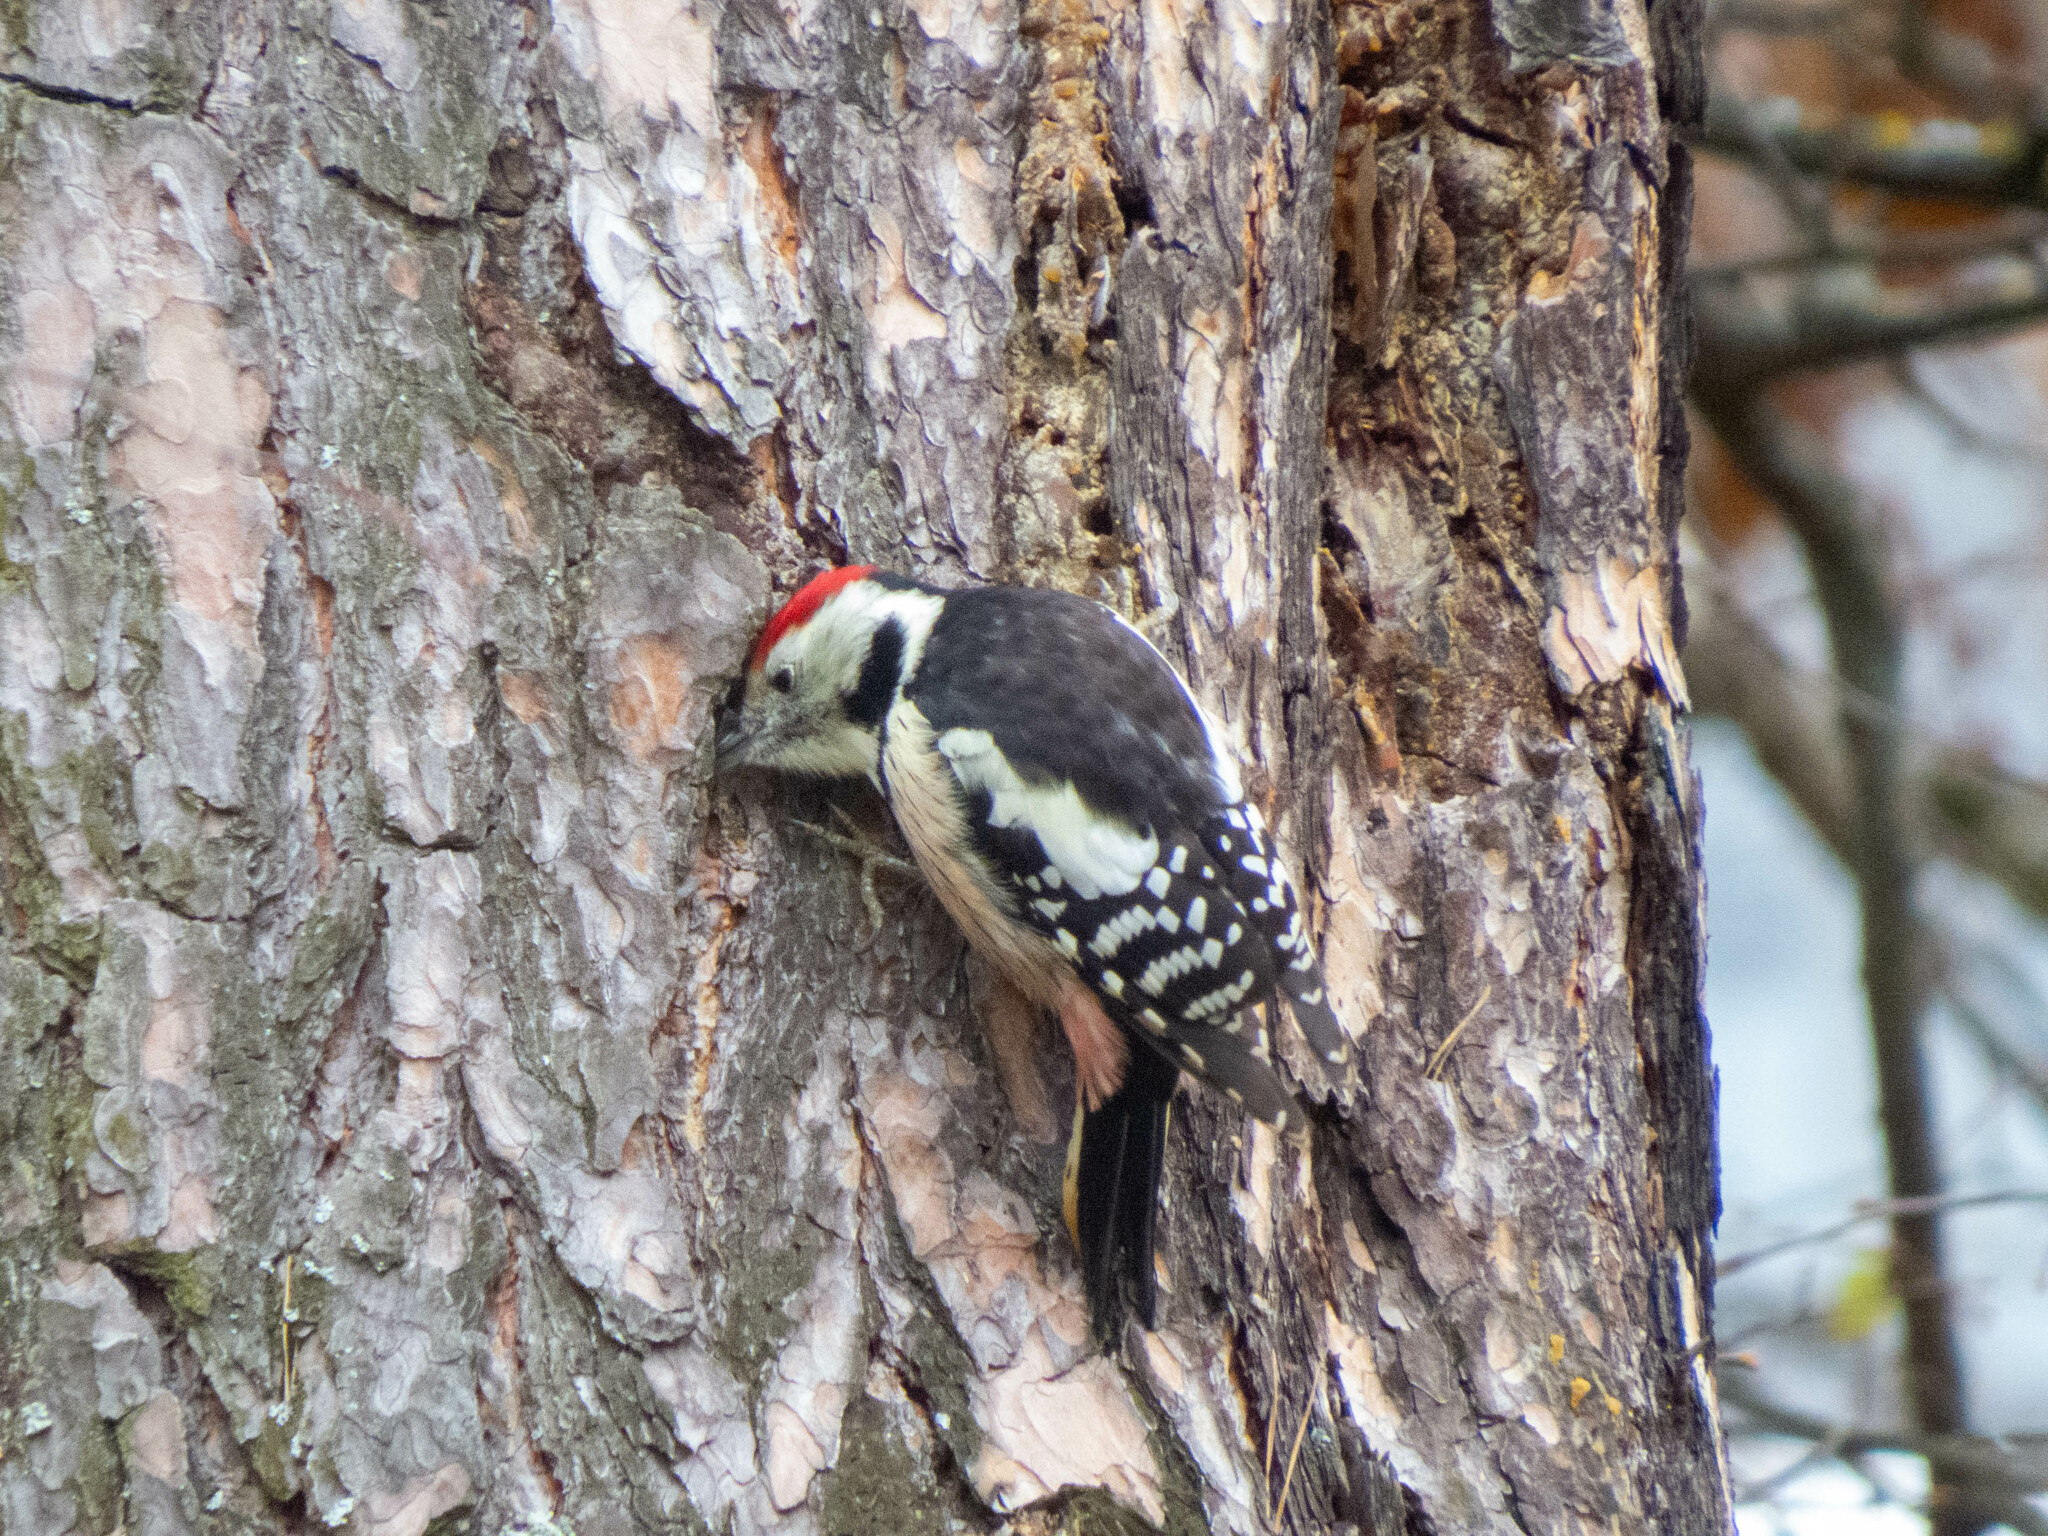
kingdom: Animalia
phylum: Chordata
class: Aves
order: Piciformes
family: Picidae
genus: Dendrocoptes
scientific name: Dendrocoptes medius
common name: Middle spotted woodpecker
